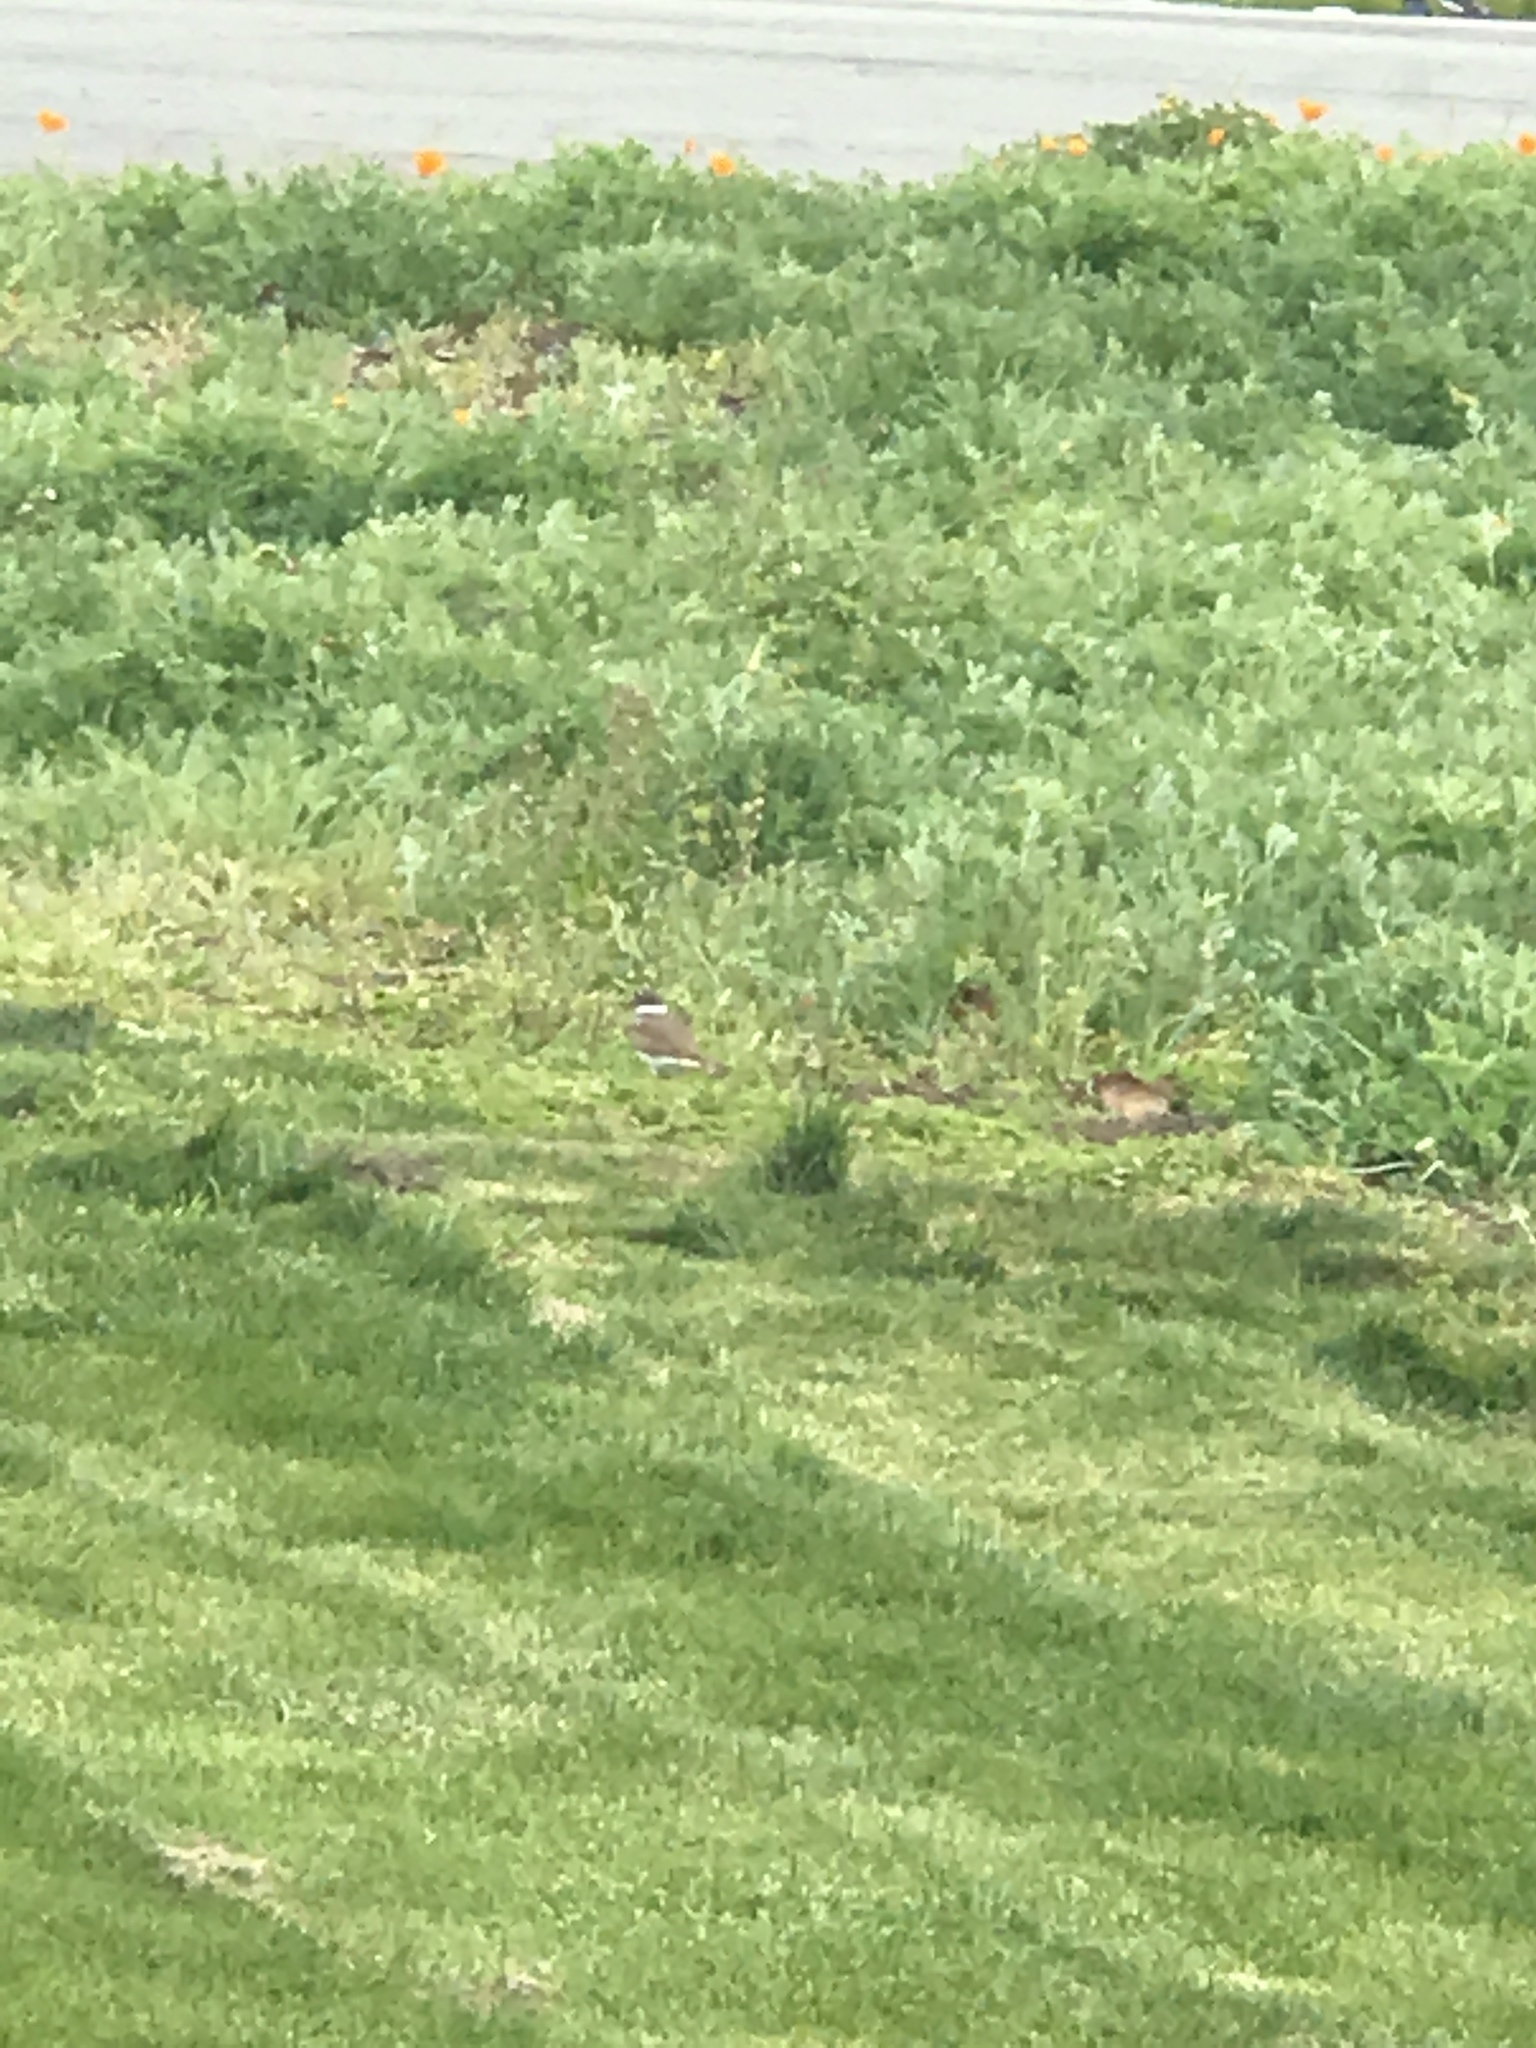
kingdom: Animalia
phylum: Chordata
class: Aves
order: Charadriiformes
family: Charadriidae
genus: Charadrius
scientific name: Charadrius vociferus
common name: Killdeer
